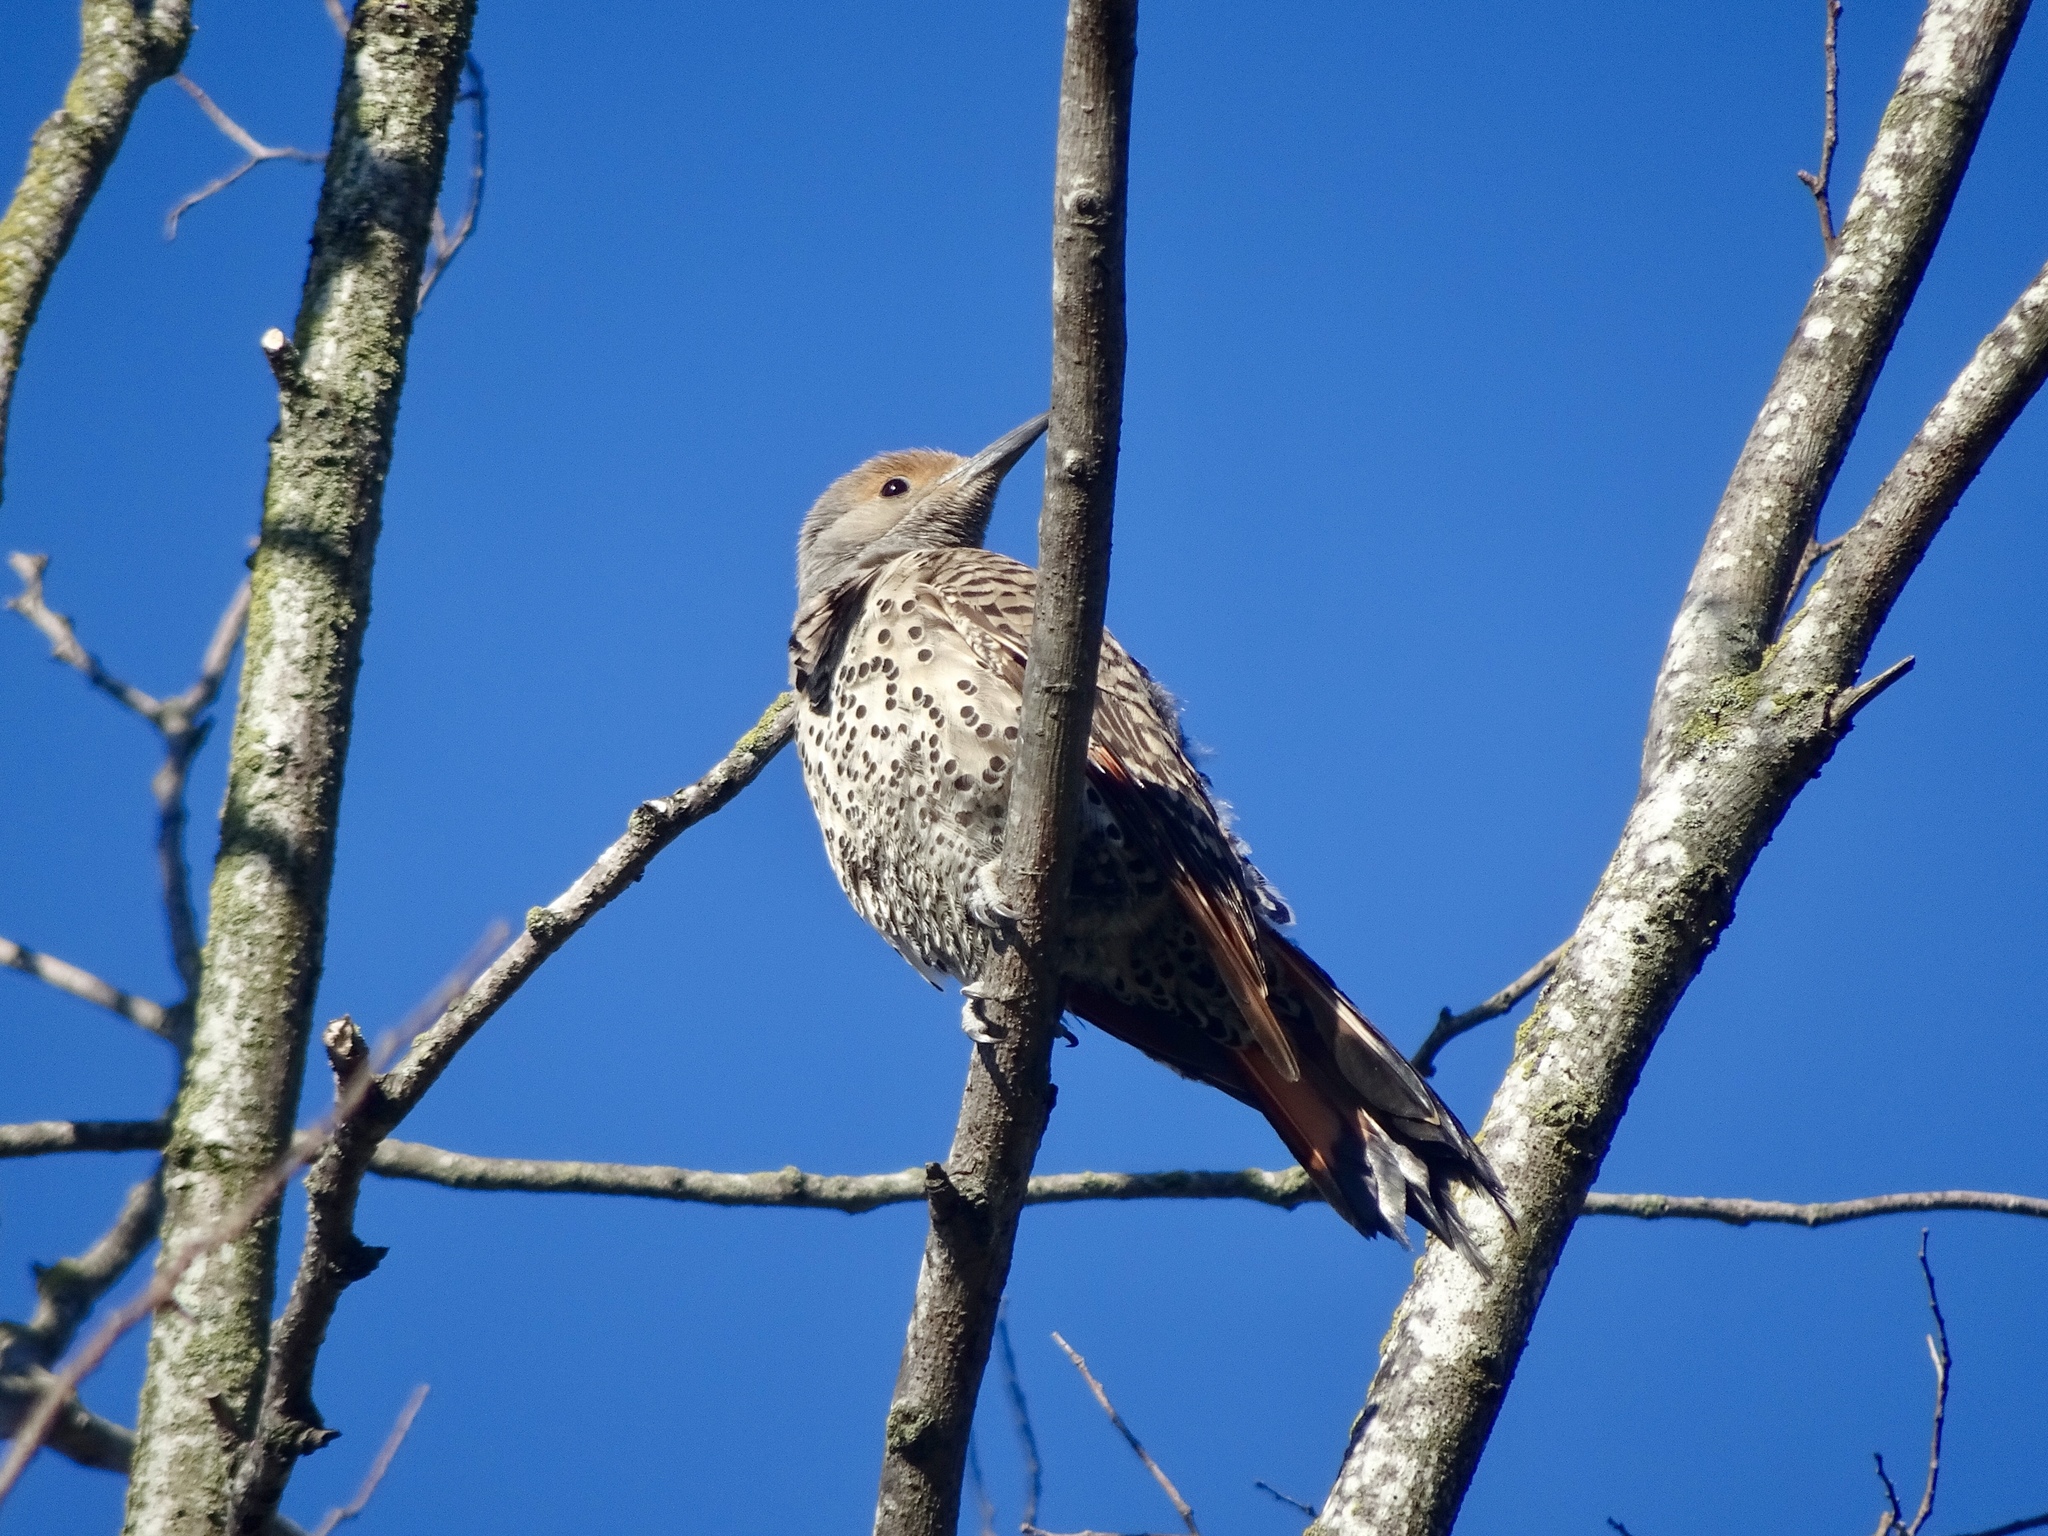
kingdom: Animalia
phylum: Chordata
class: Aves
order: Piciformes
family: Picidae
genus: Colaptes
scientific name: Colaptes auratus
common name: Northern flicker
